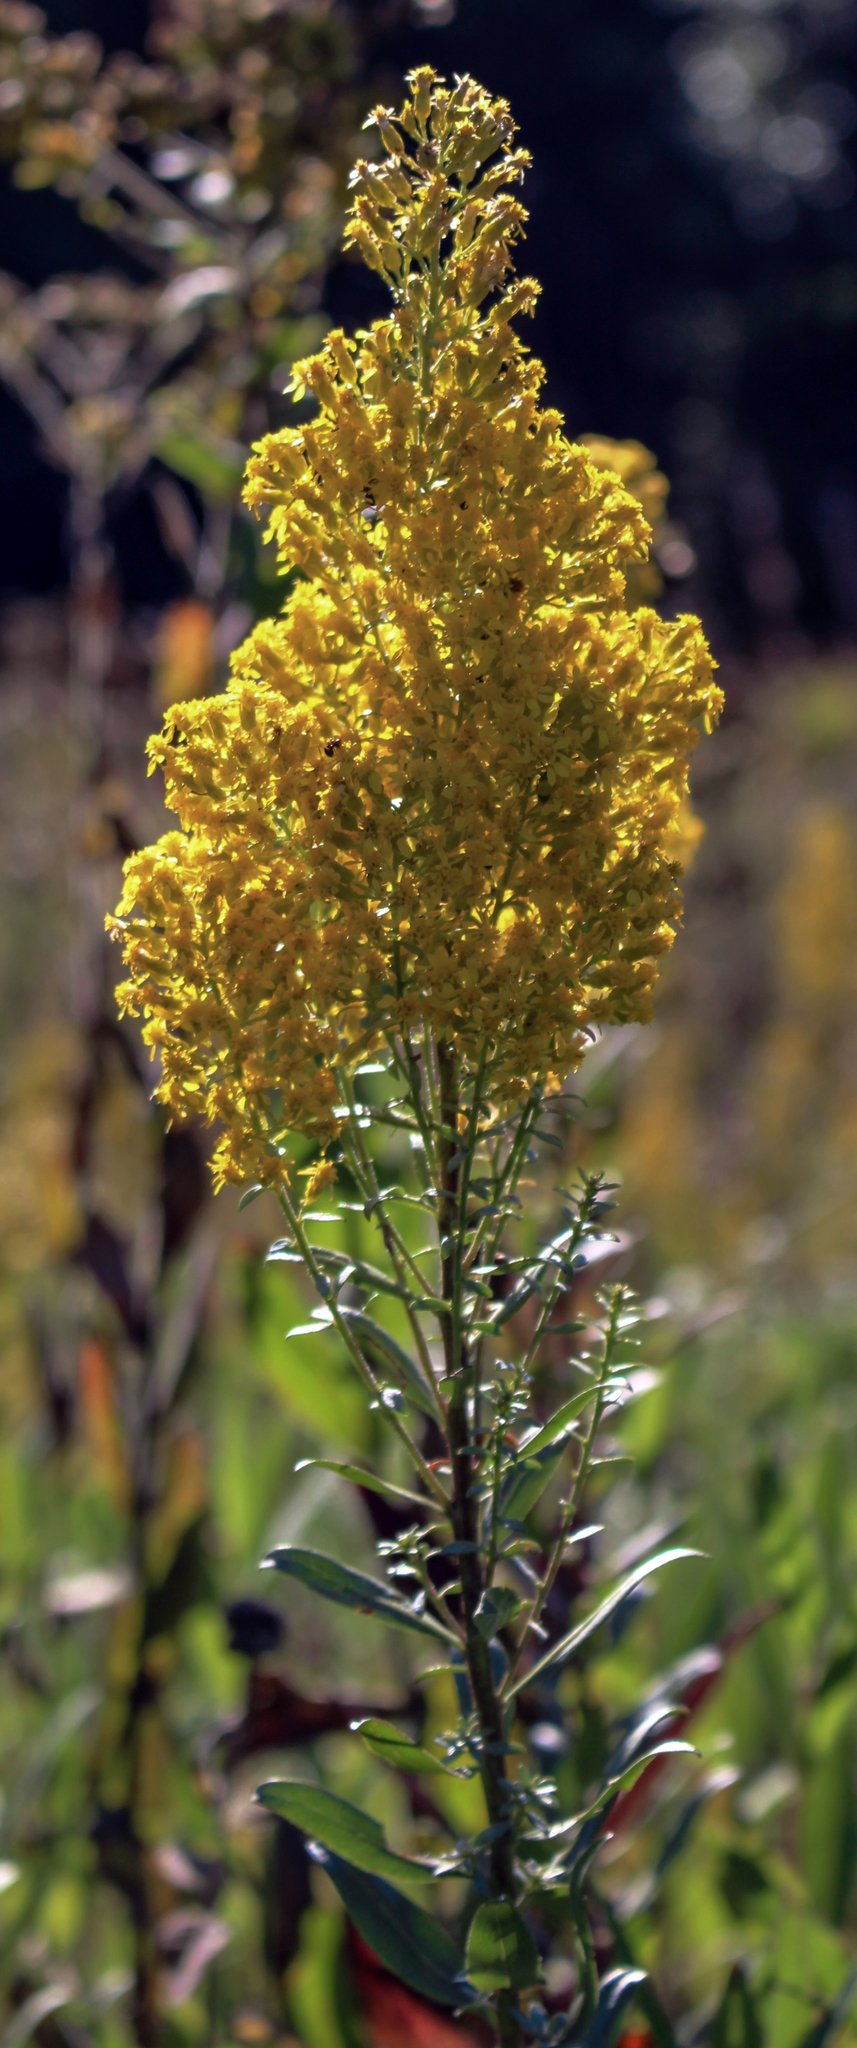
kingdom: Plantae
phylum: Tracheophyta
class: Magnoliopsida
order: Asterales
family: Asteraceae
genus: Solidago
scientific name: Solidago rigidiuscula
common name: Stiff-leaved showy goldenrod
